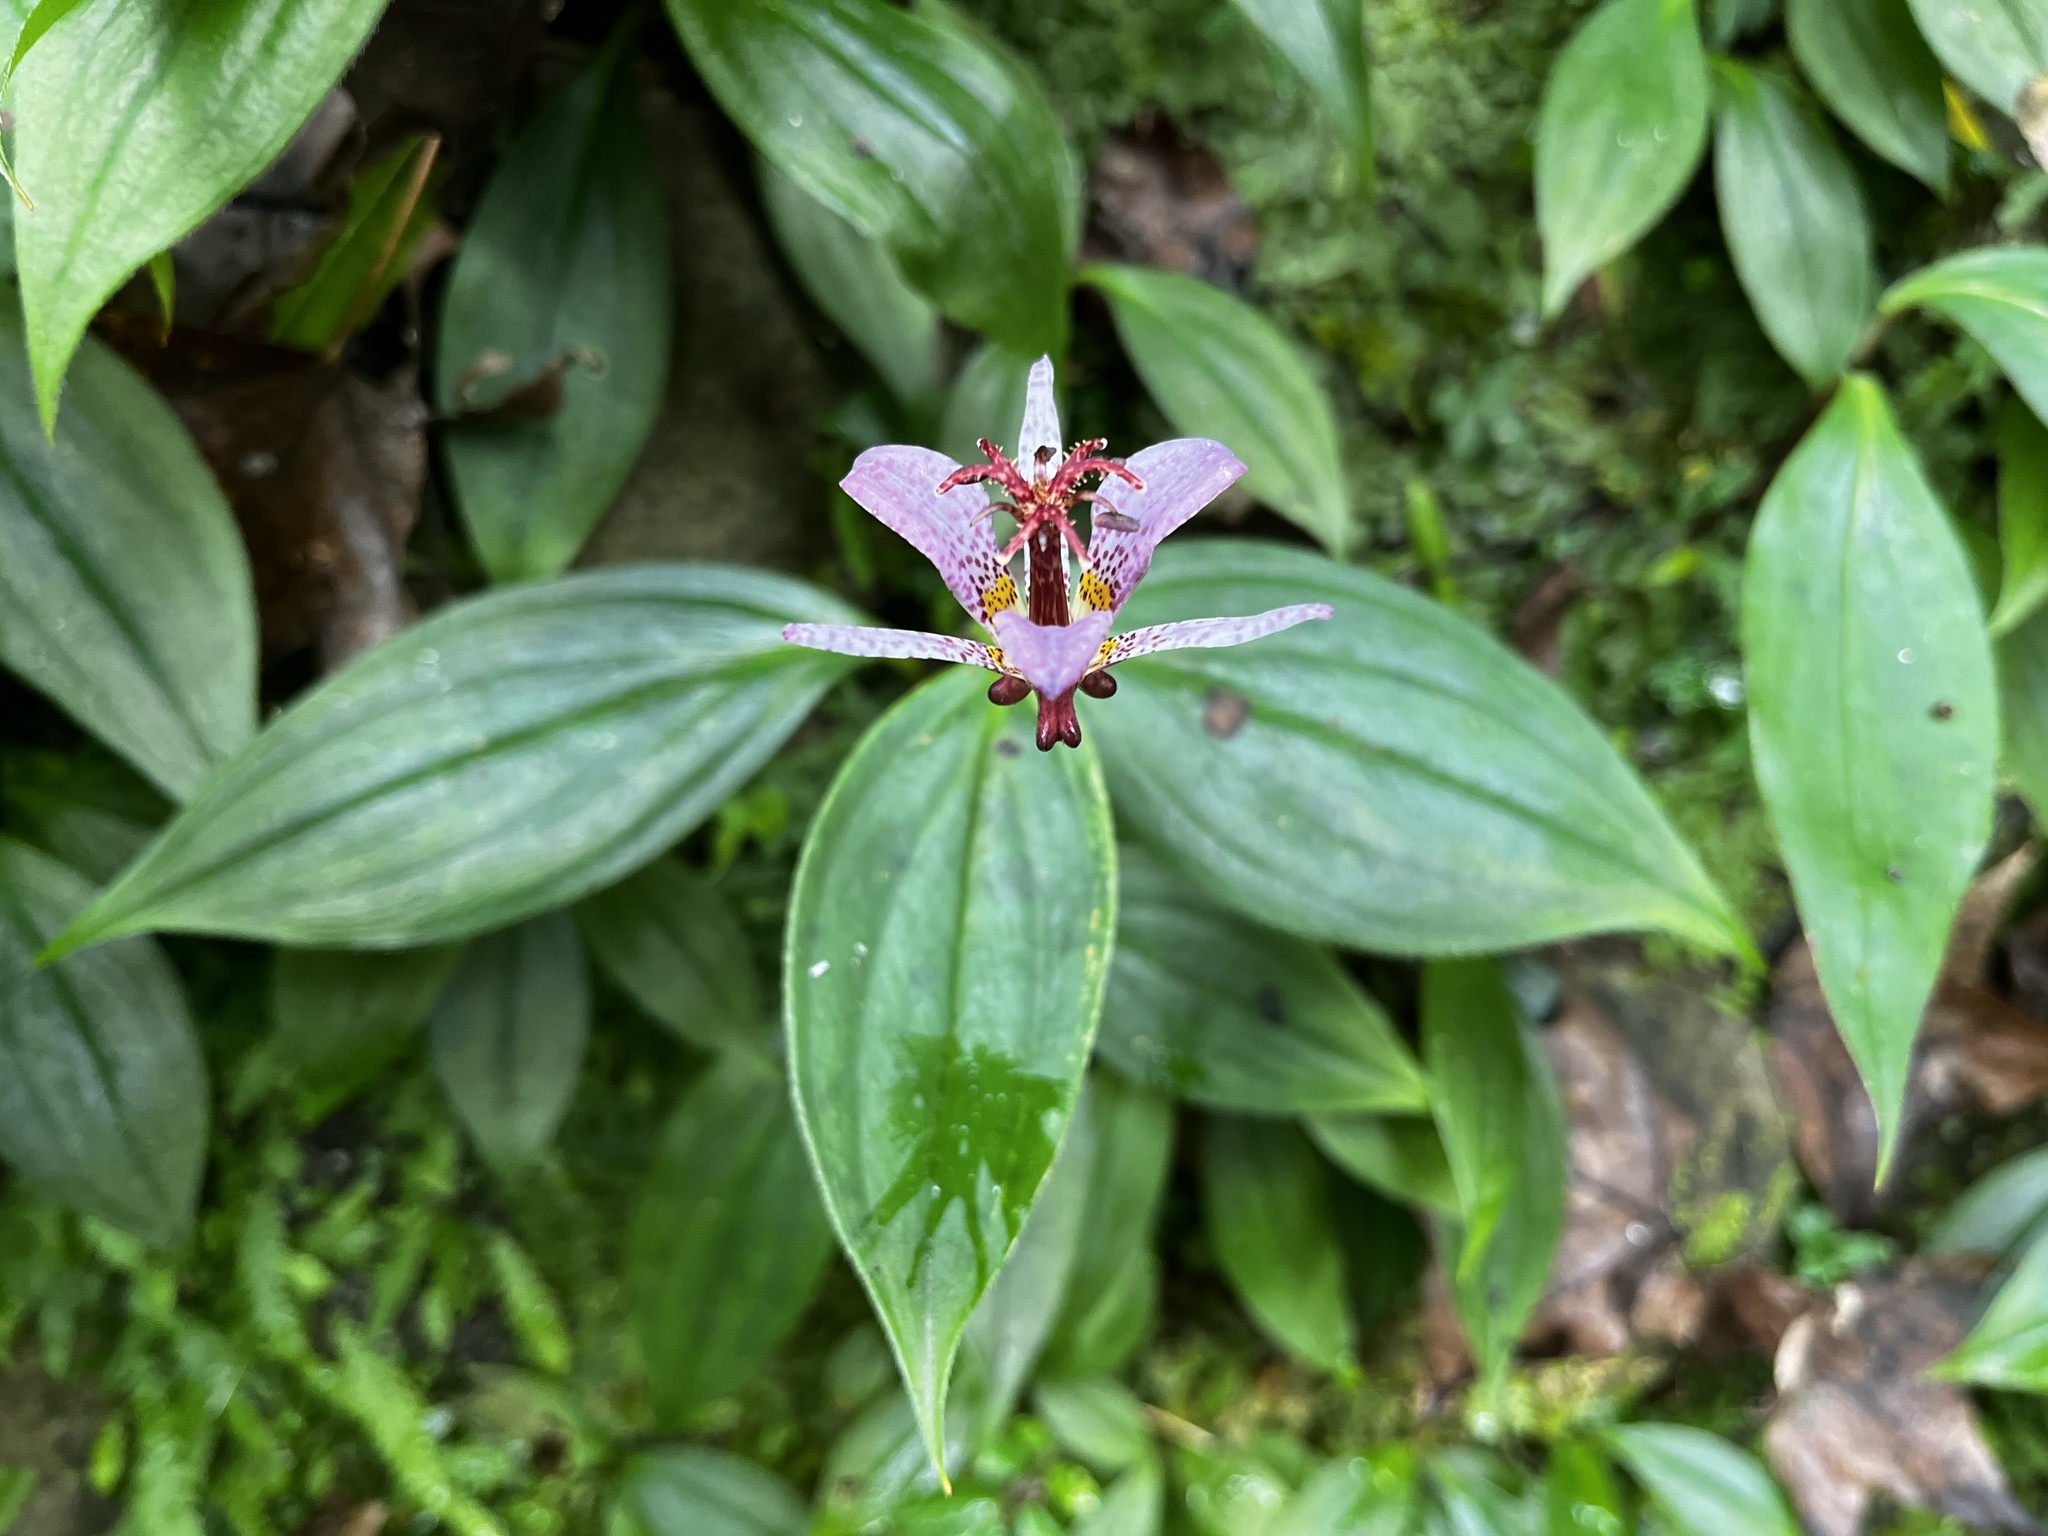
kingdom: Plantae
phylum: Tracheophyta
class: Liliopsida
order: Liliales
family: Liliaceae
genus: Tricyrtis
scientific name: Tricyrtis formosana
